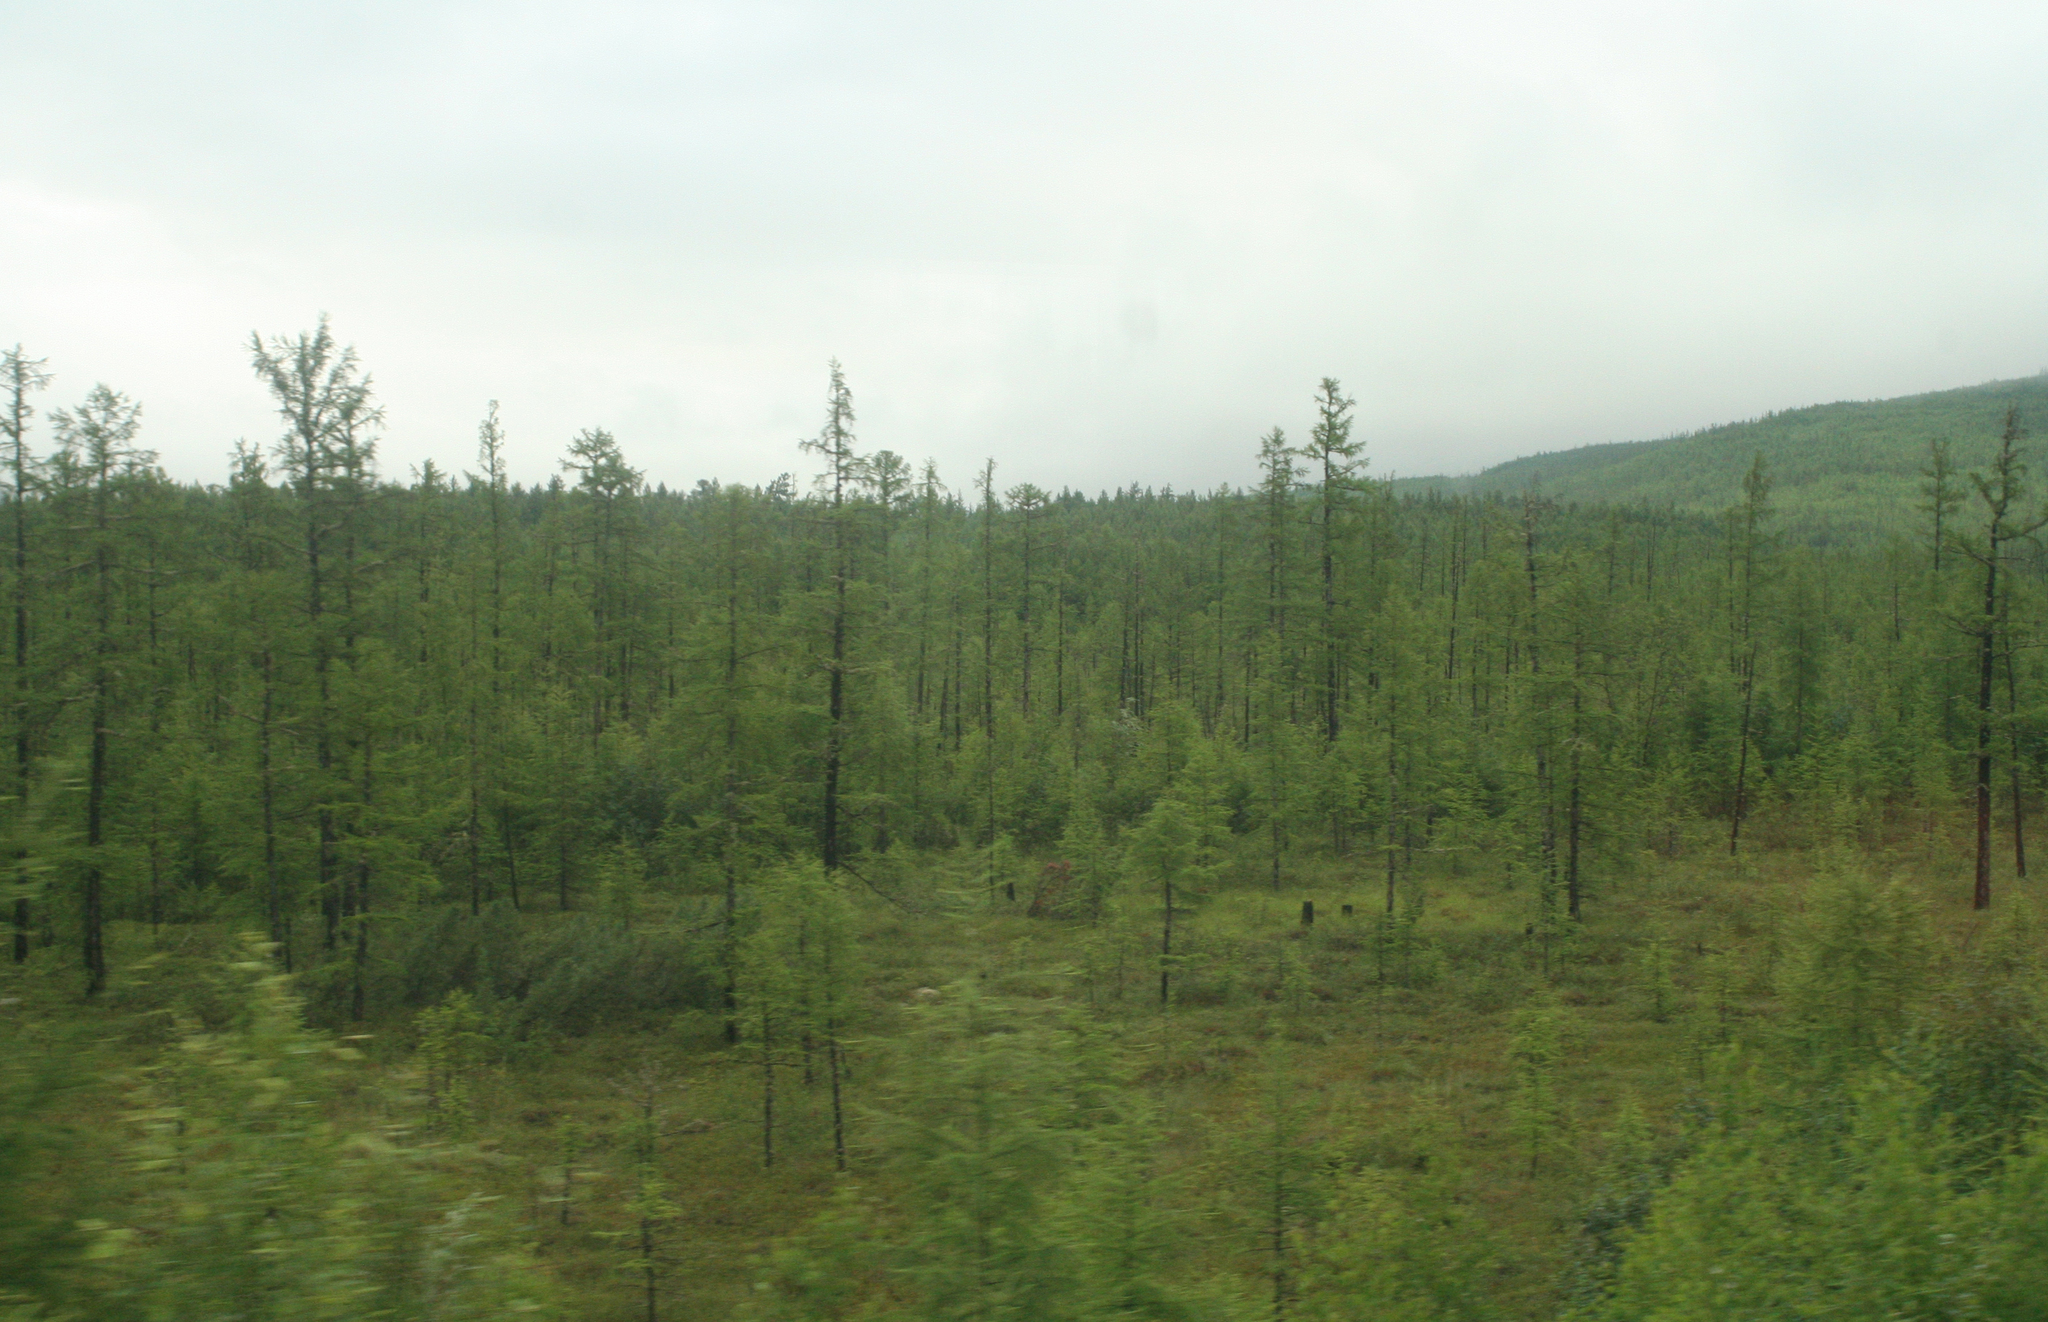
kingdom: Plantae
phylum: Tracheophyta
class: Pinopsida
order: Pinales
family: Pinaceae
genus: Larix
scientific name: Larix gmelinii
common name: Dahurian larch
